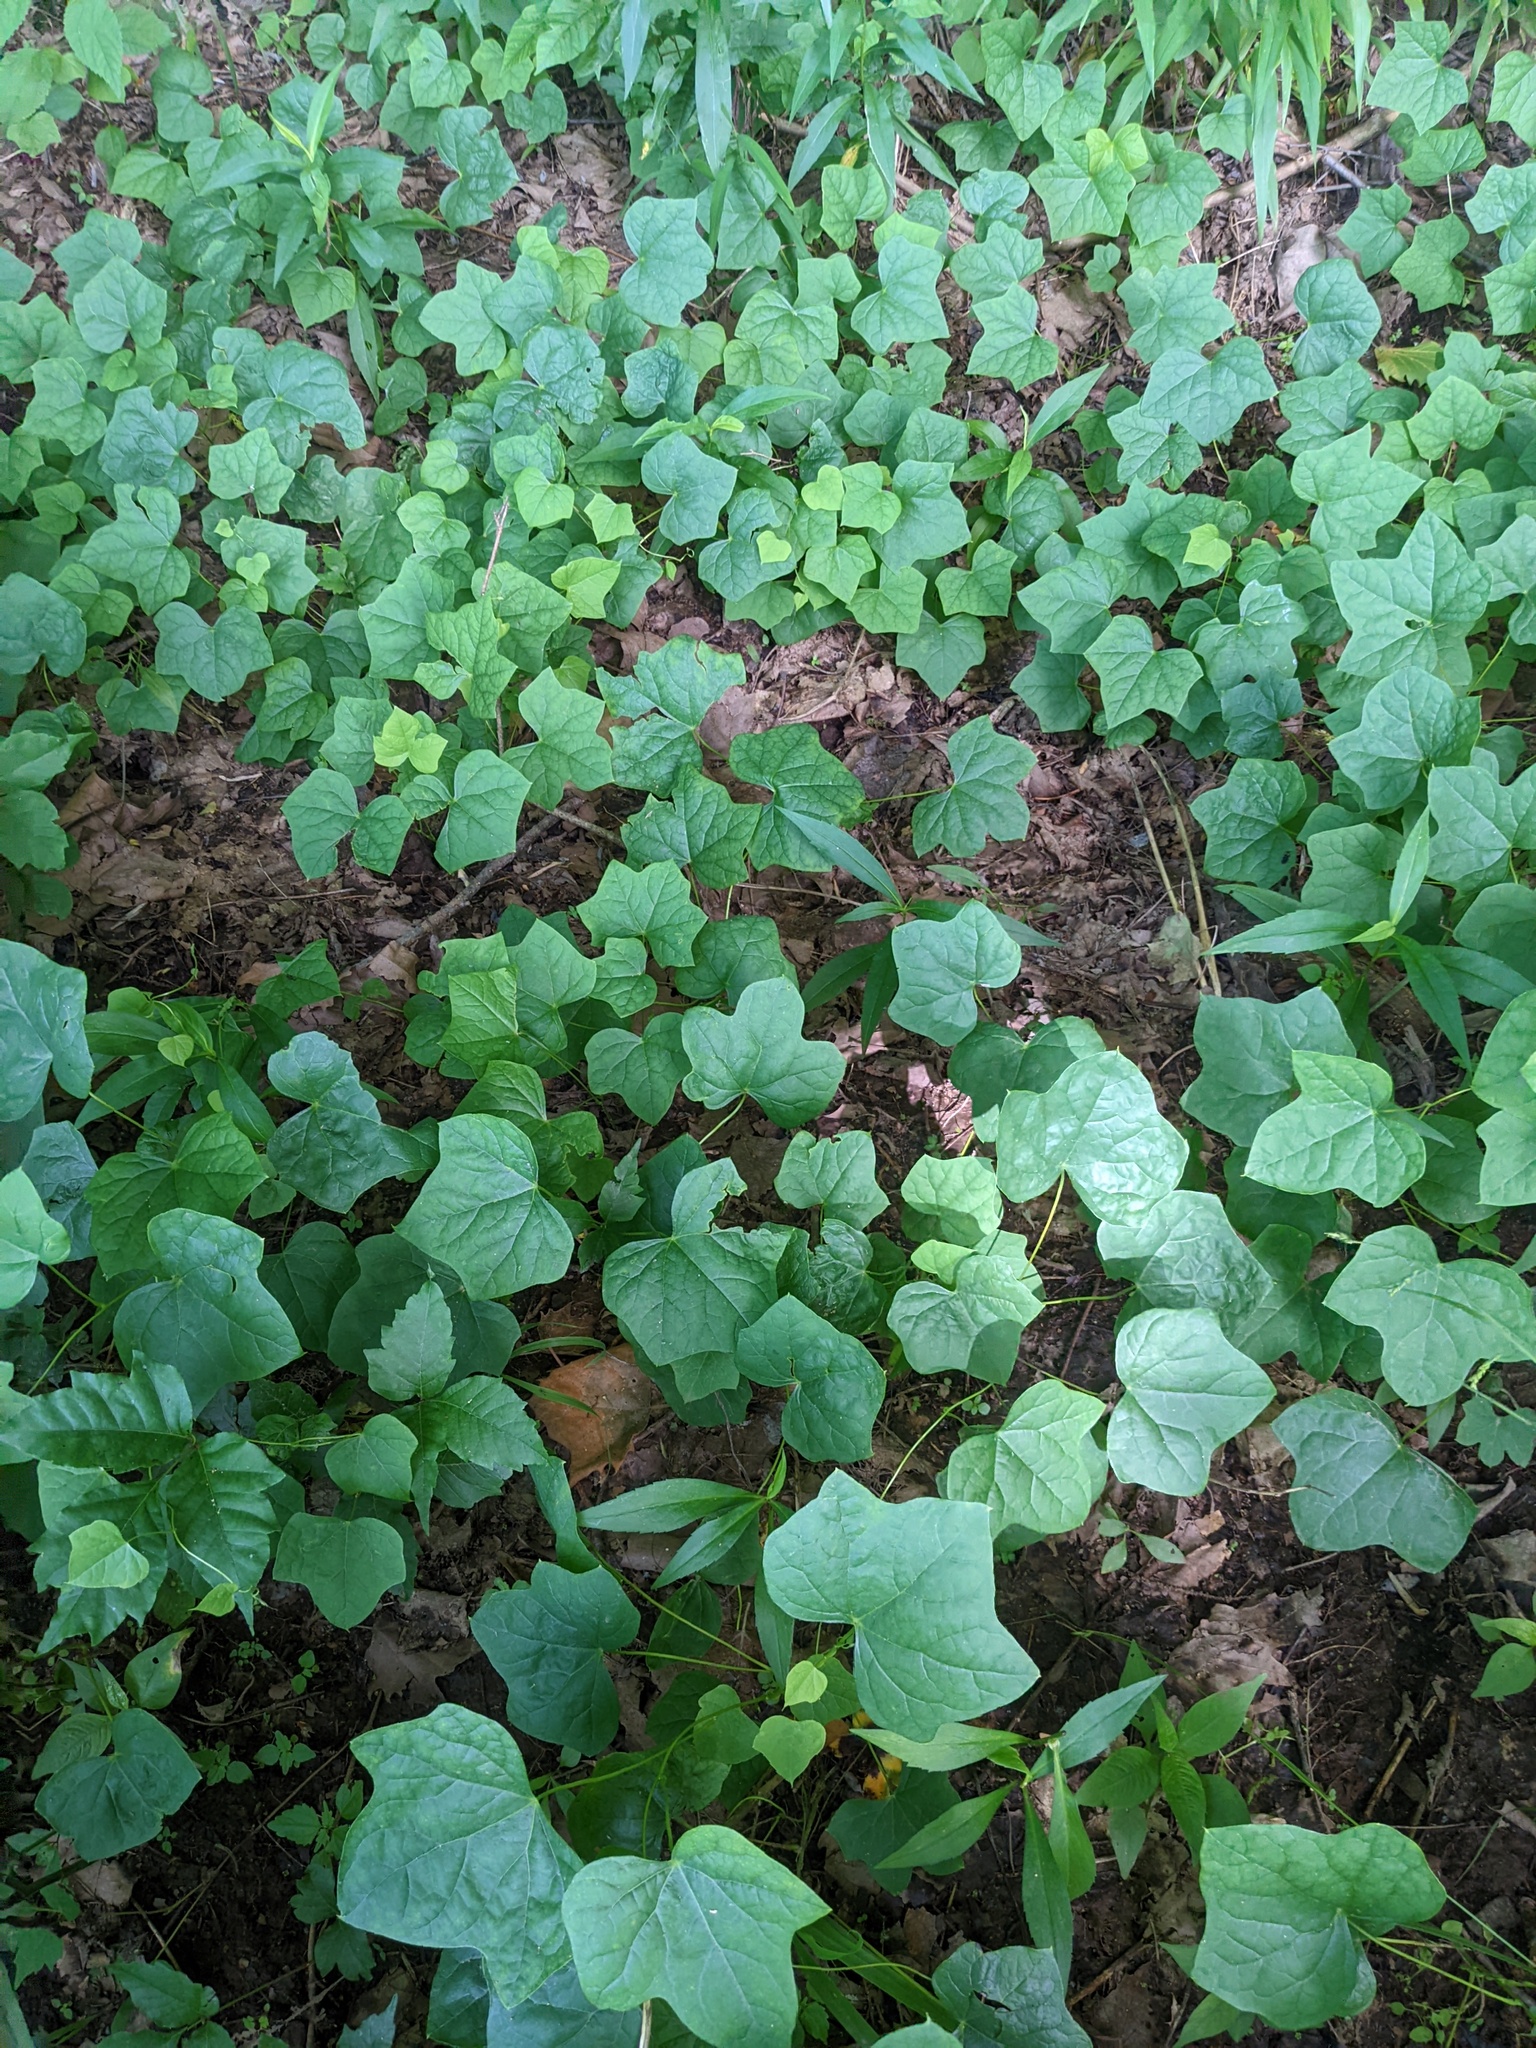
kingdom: Plantae
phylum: Tracheophyta
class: Magnoliopsida
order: Ranunculales
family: Menispermaceae
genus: Menispermum
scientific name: Menispermum canadense
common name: Moonseed
